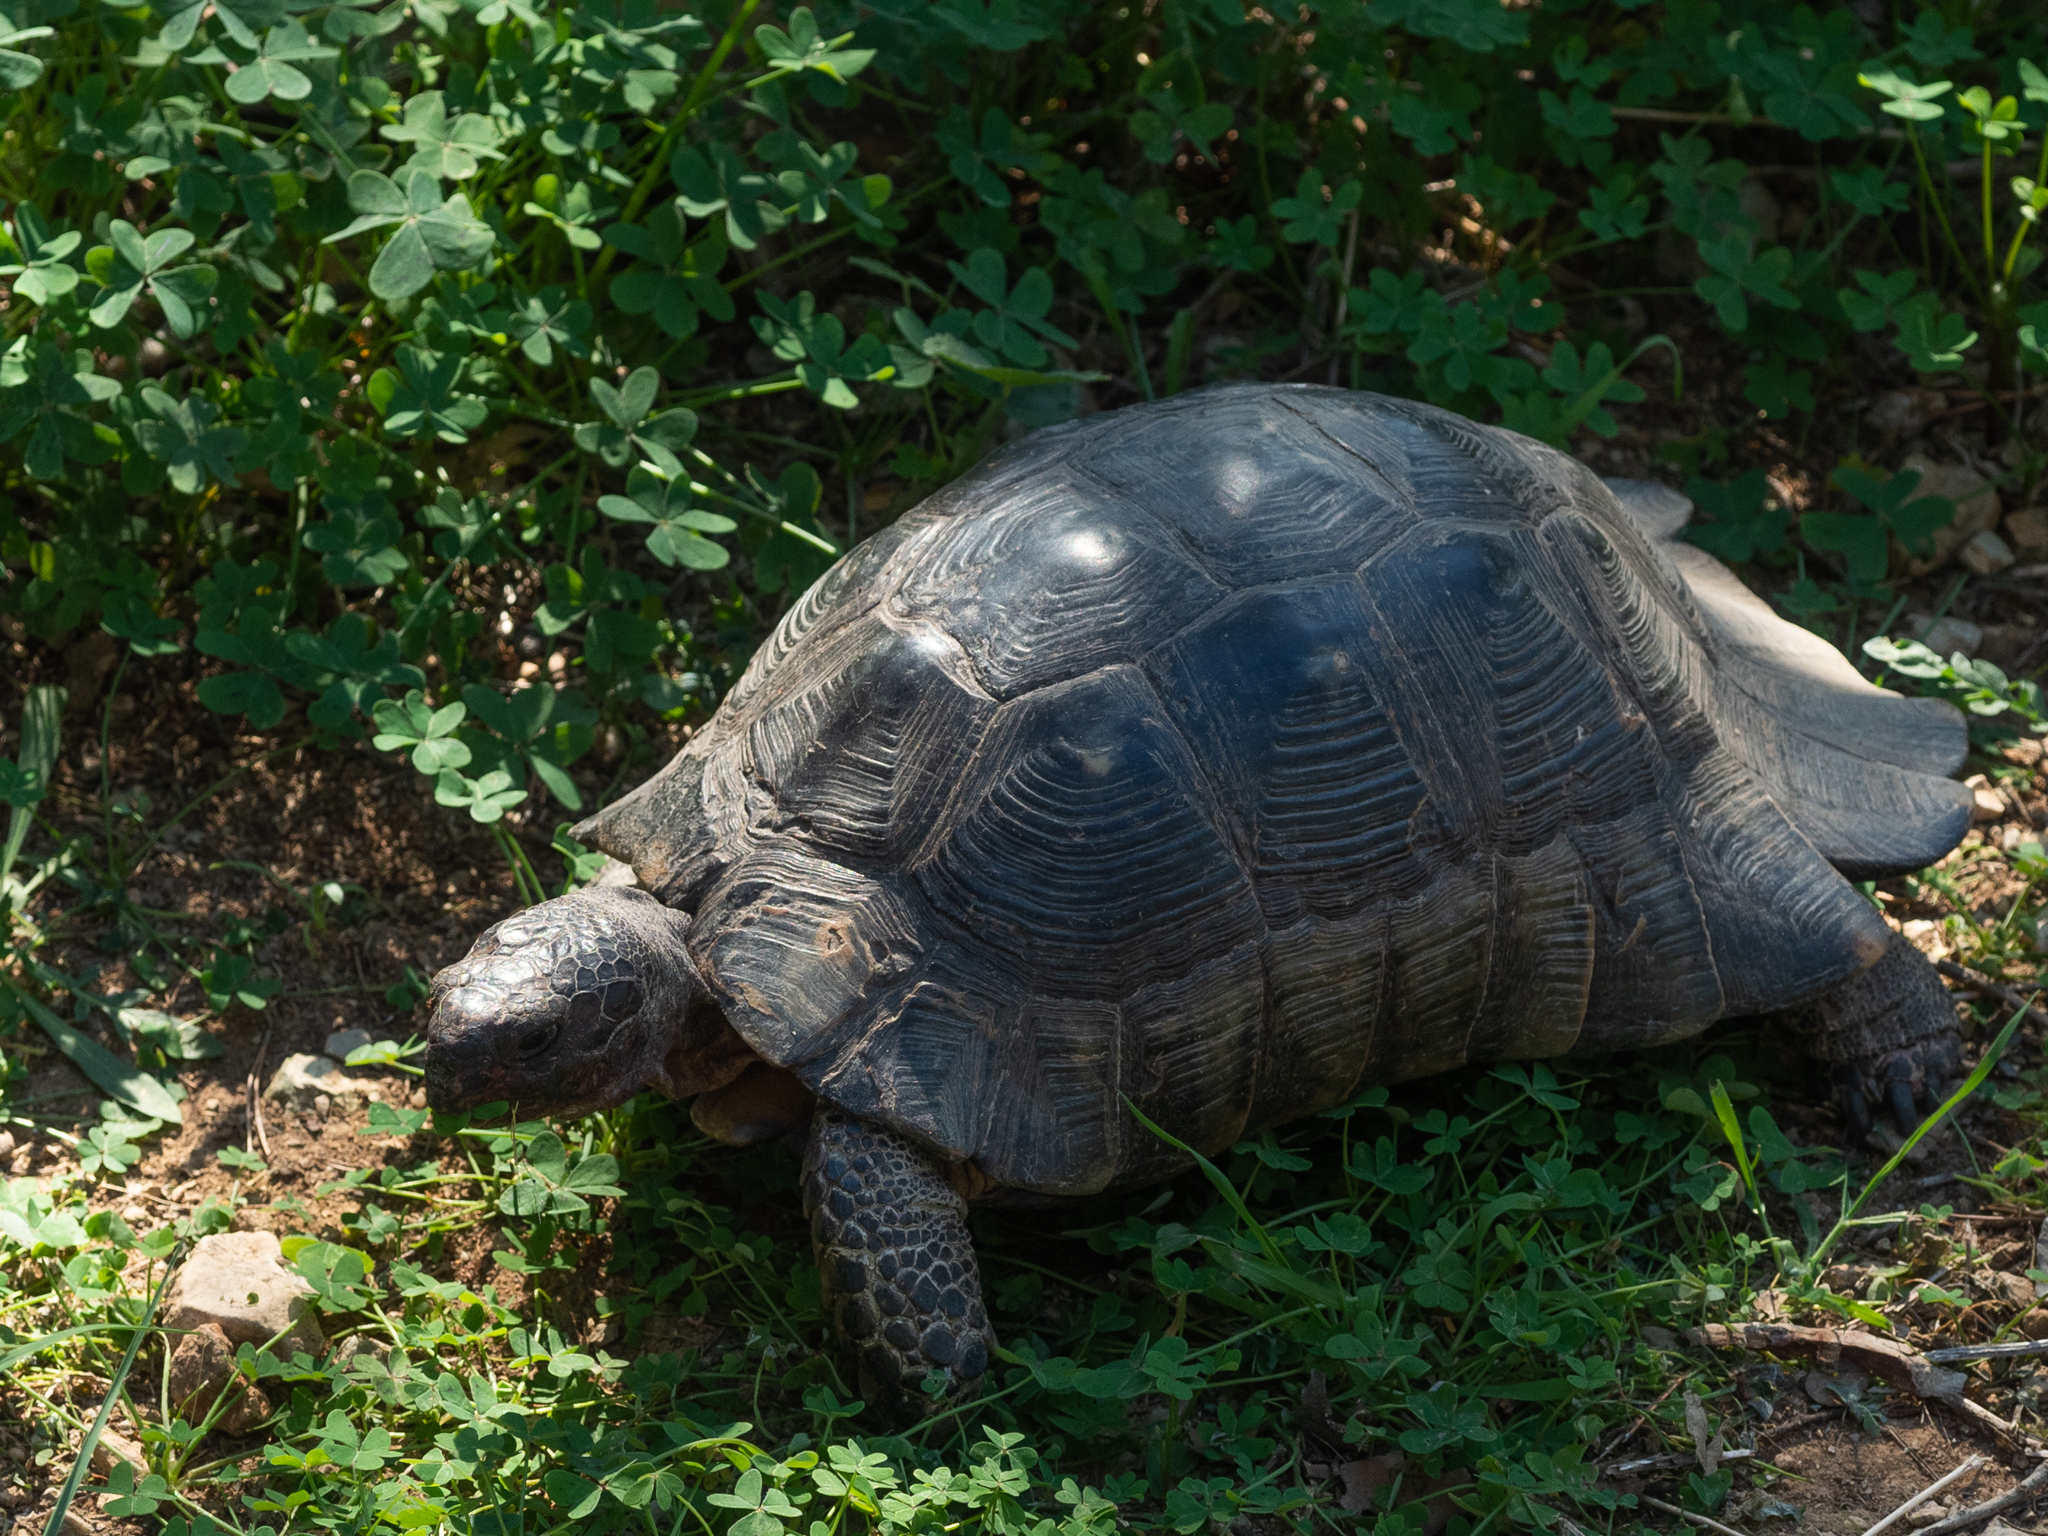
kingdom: Animalia
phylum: Chordata
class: Testudines
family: Testudinidae
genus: Testudo
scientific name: Testudo marginata
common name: Marginated tortoise
